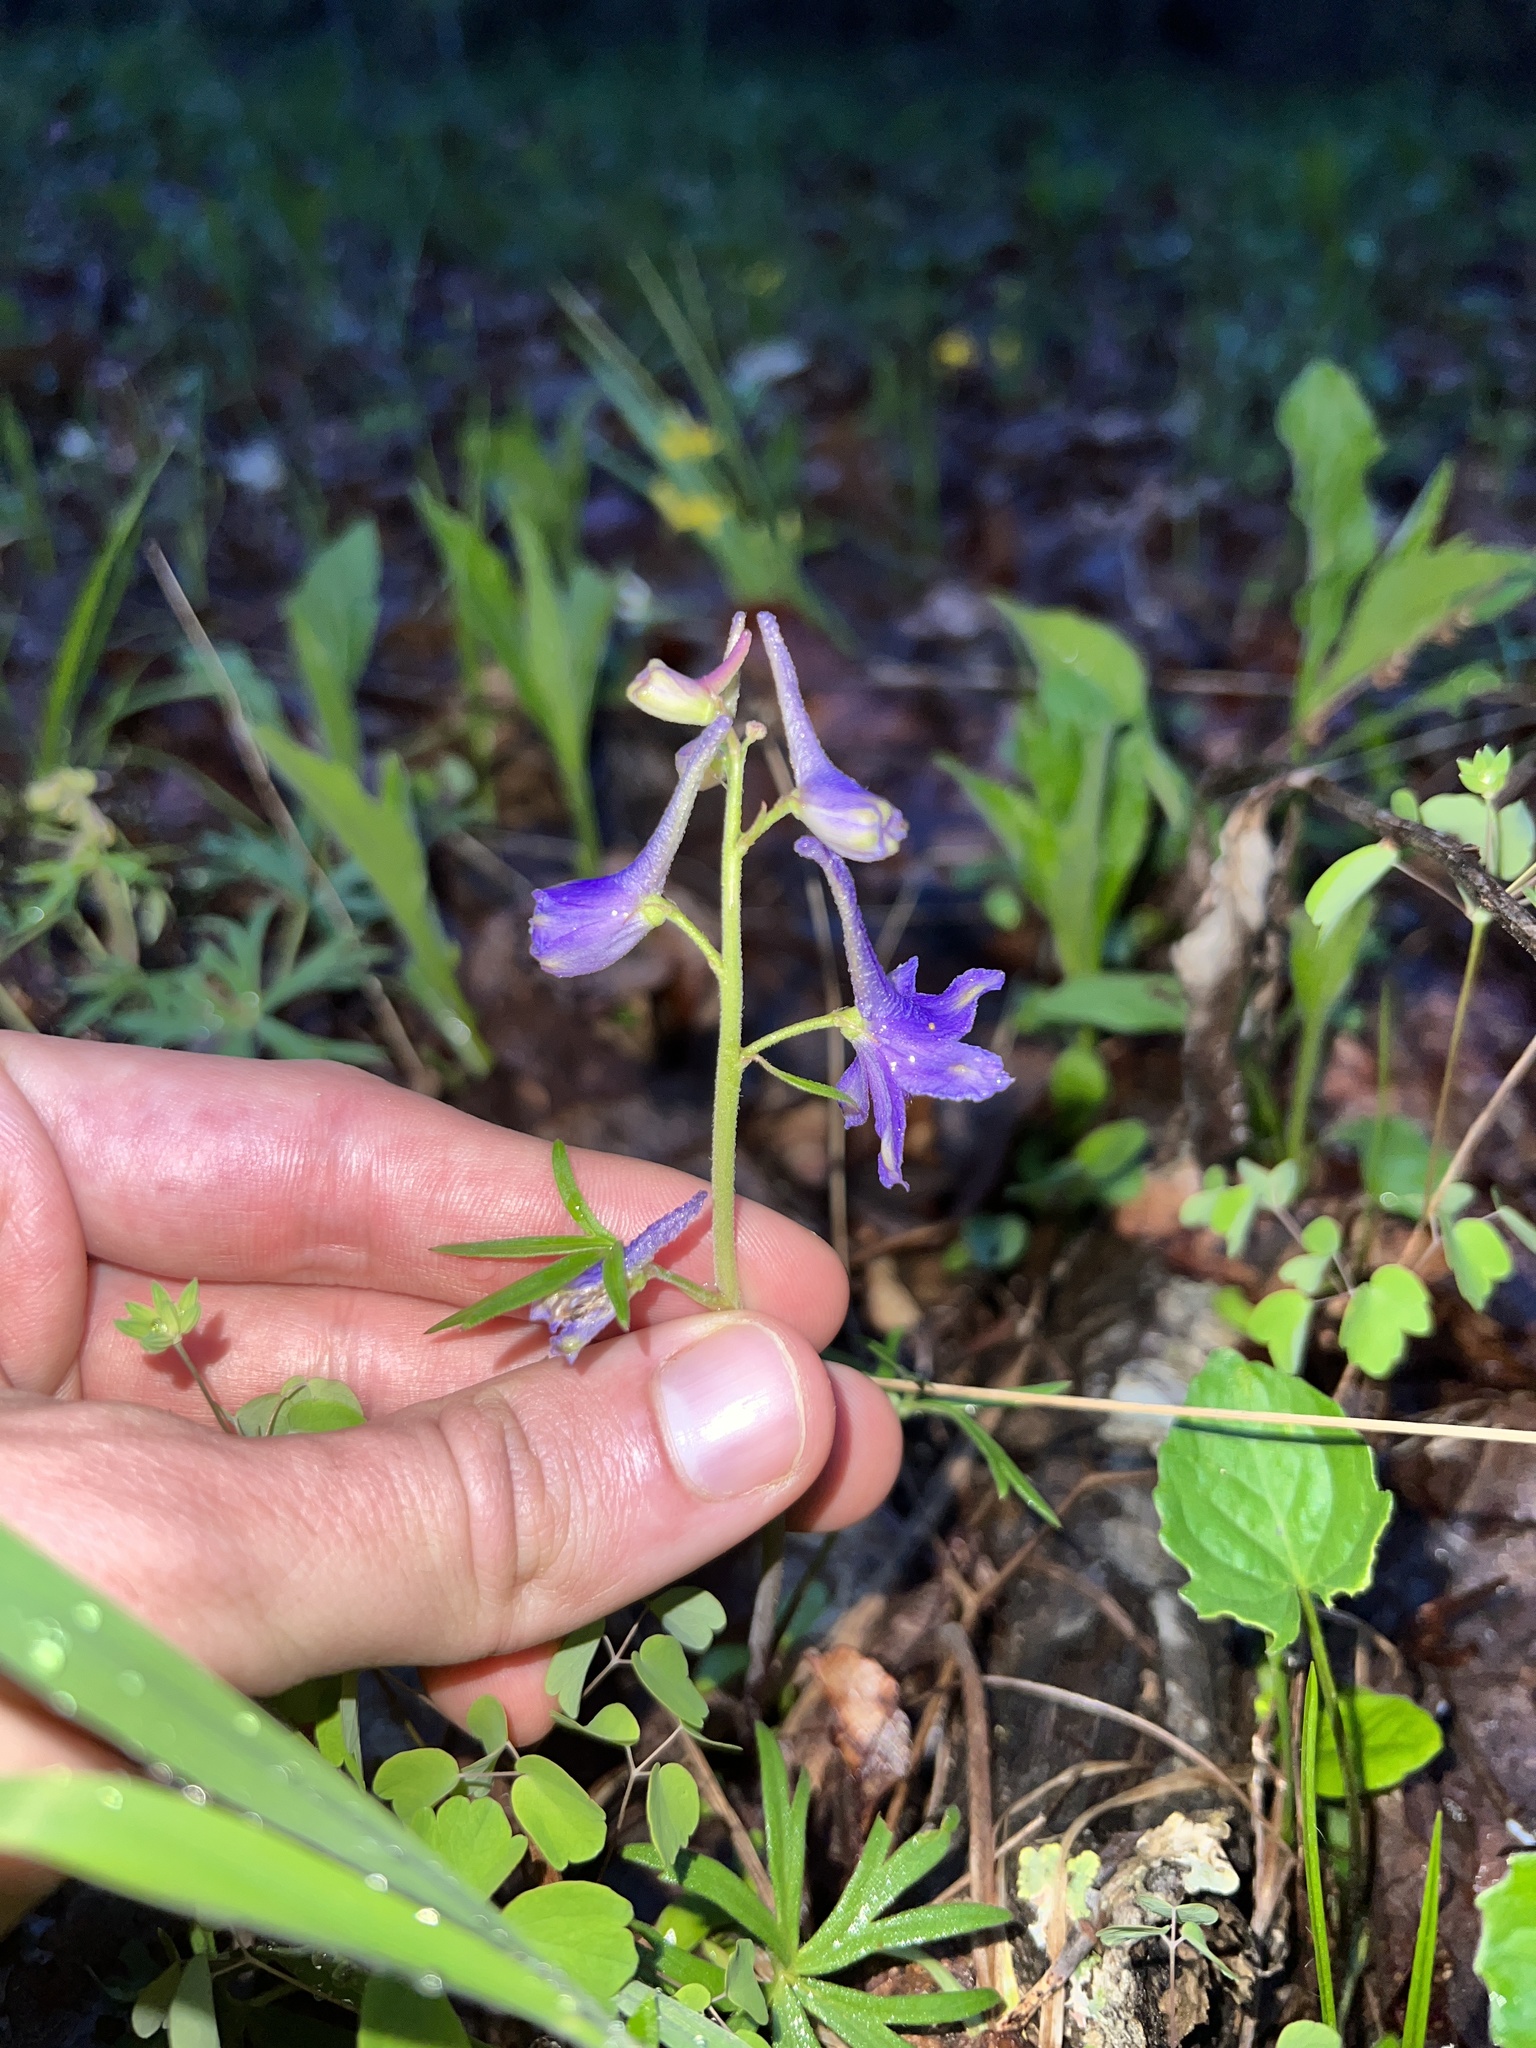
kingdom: Plantae
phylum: Tracheophyta
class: Magnoliopsida
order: Ranunculales
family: Ranunculaceae
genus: Delphinium
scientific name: Delphinium tricorne
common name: Dwarf larkspur
